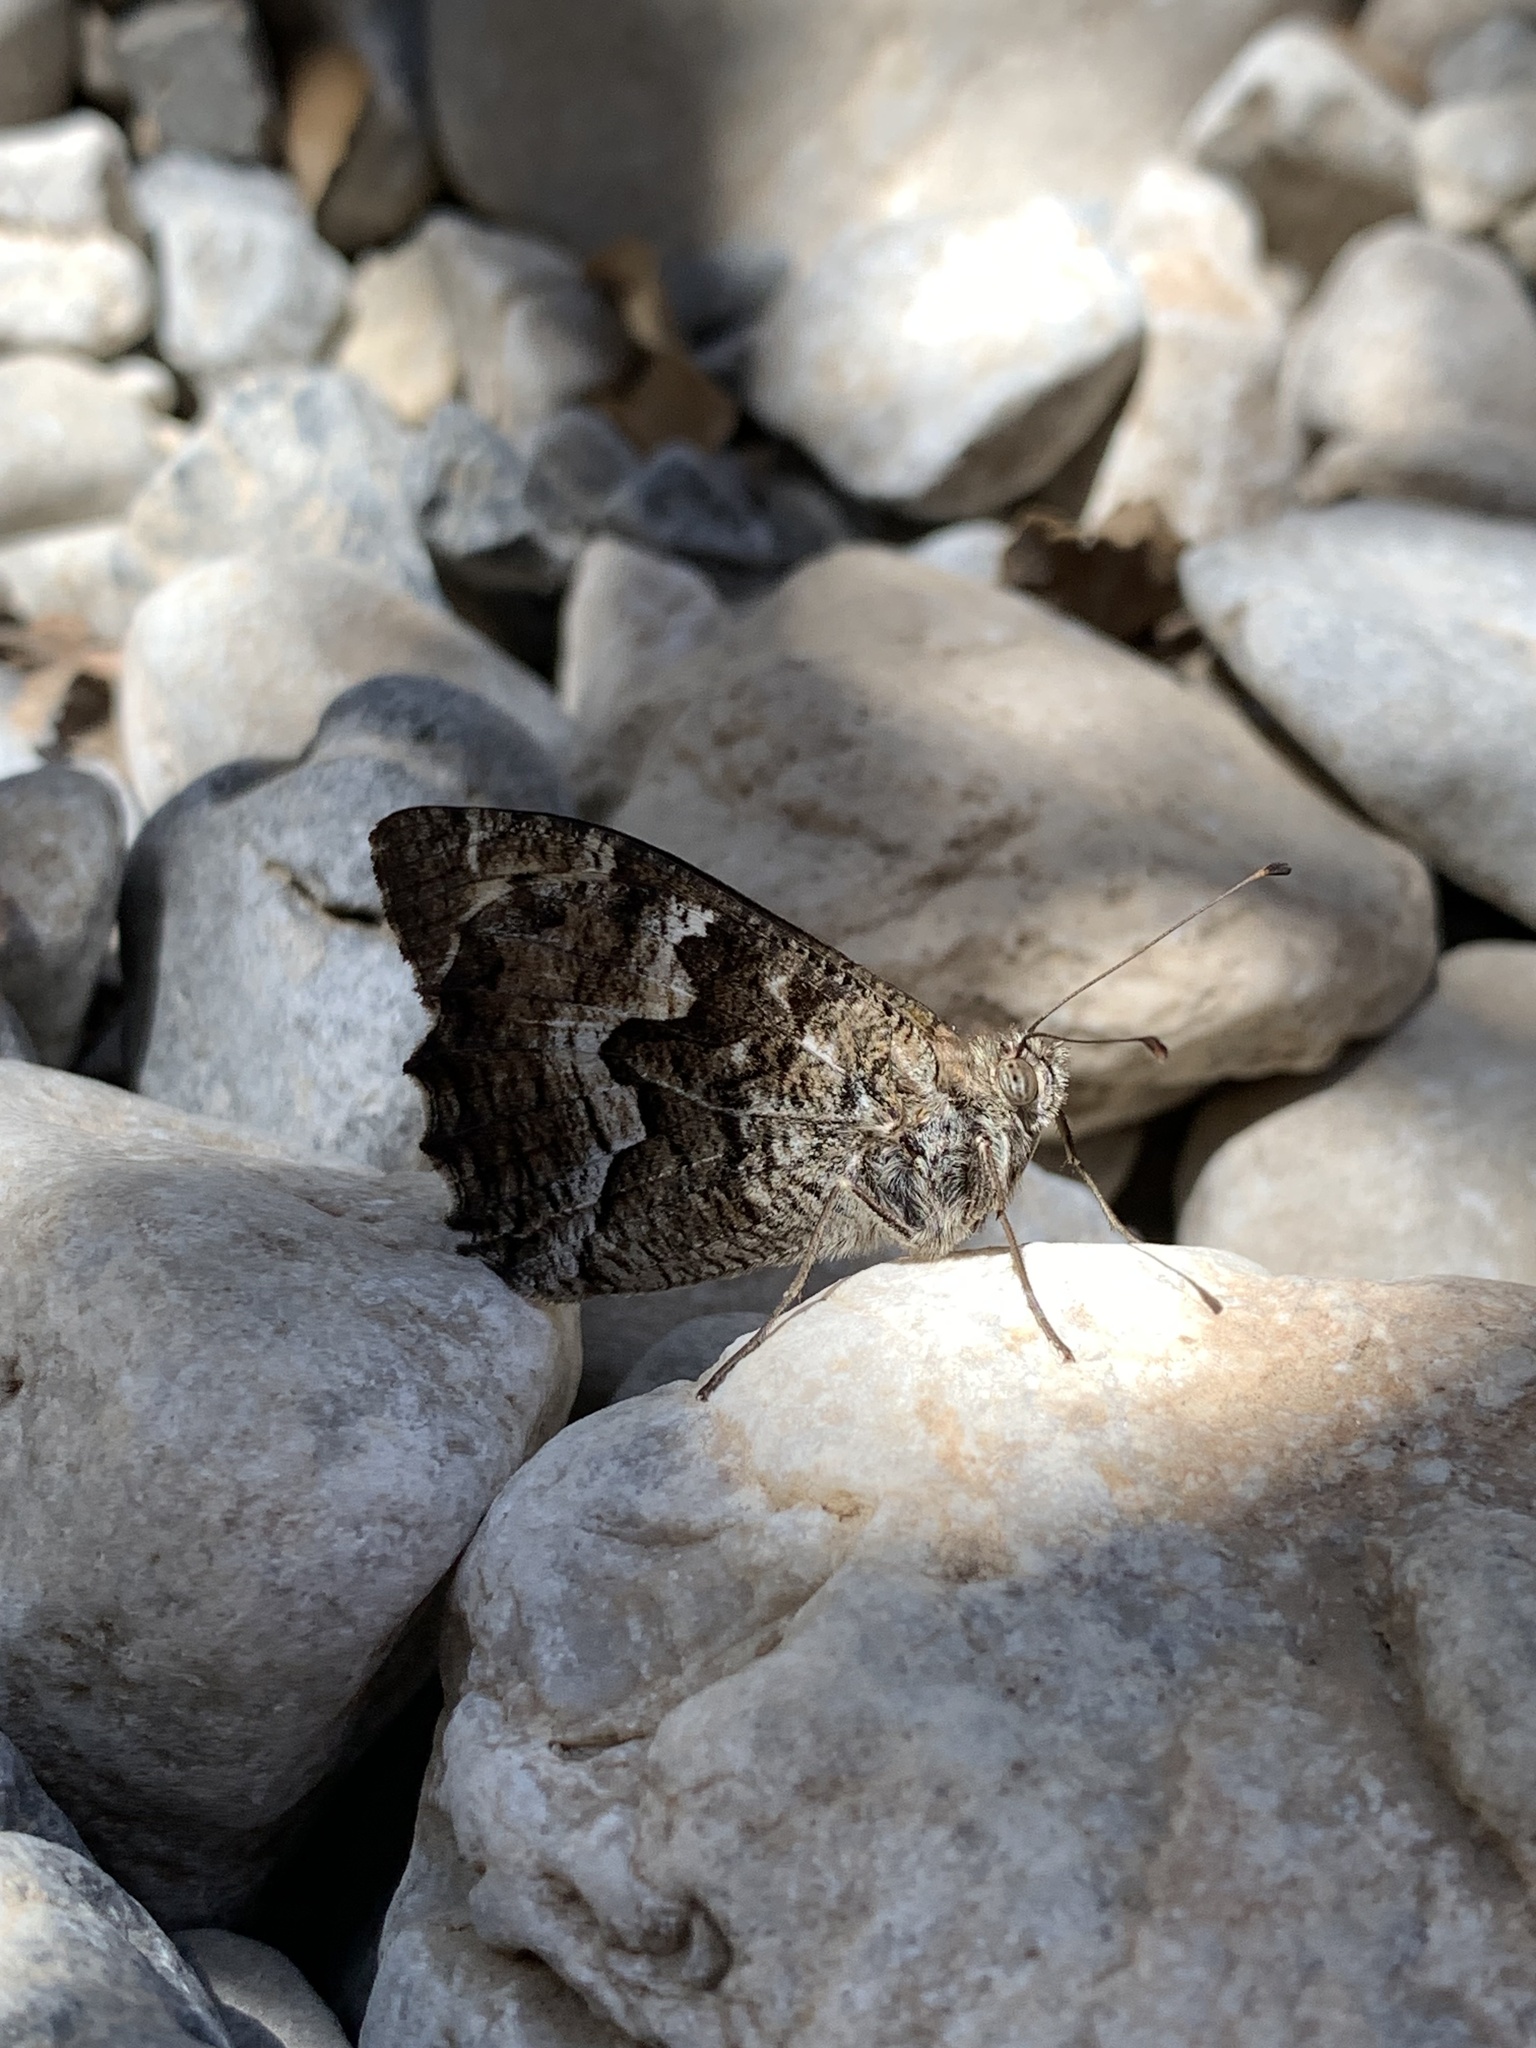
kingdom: Animalia
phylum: Arthropoda
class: Insecta
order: Lepidoptera
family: Nymphalidae
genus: Hipparchia
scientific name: Hipparchia cretica
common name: Cretan grayling
